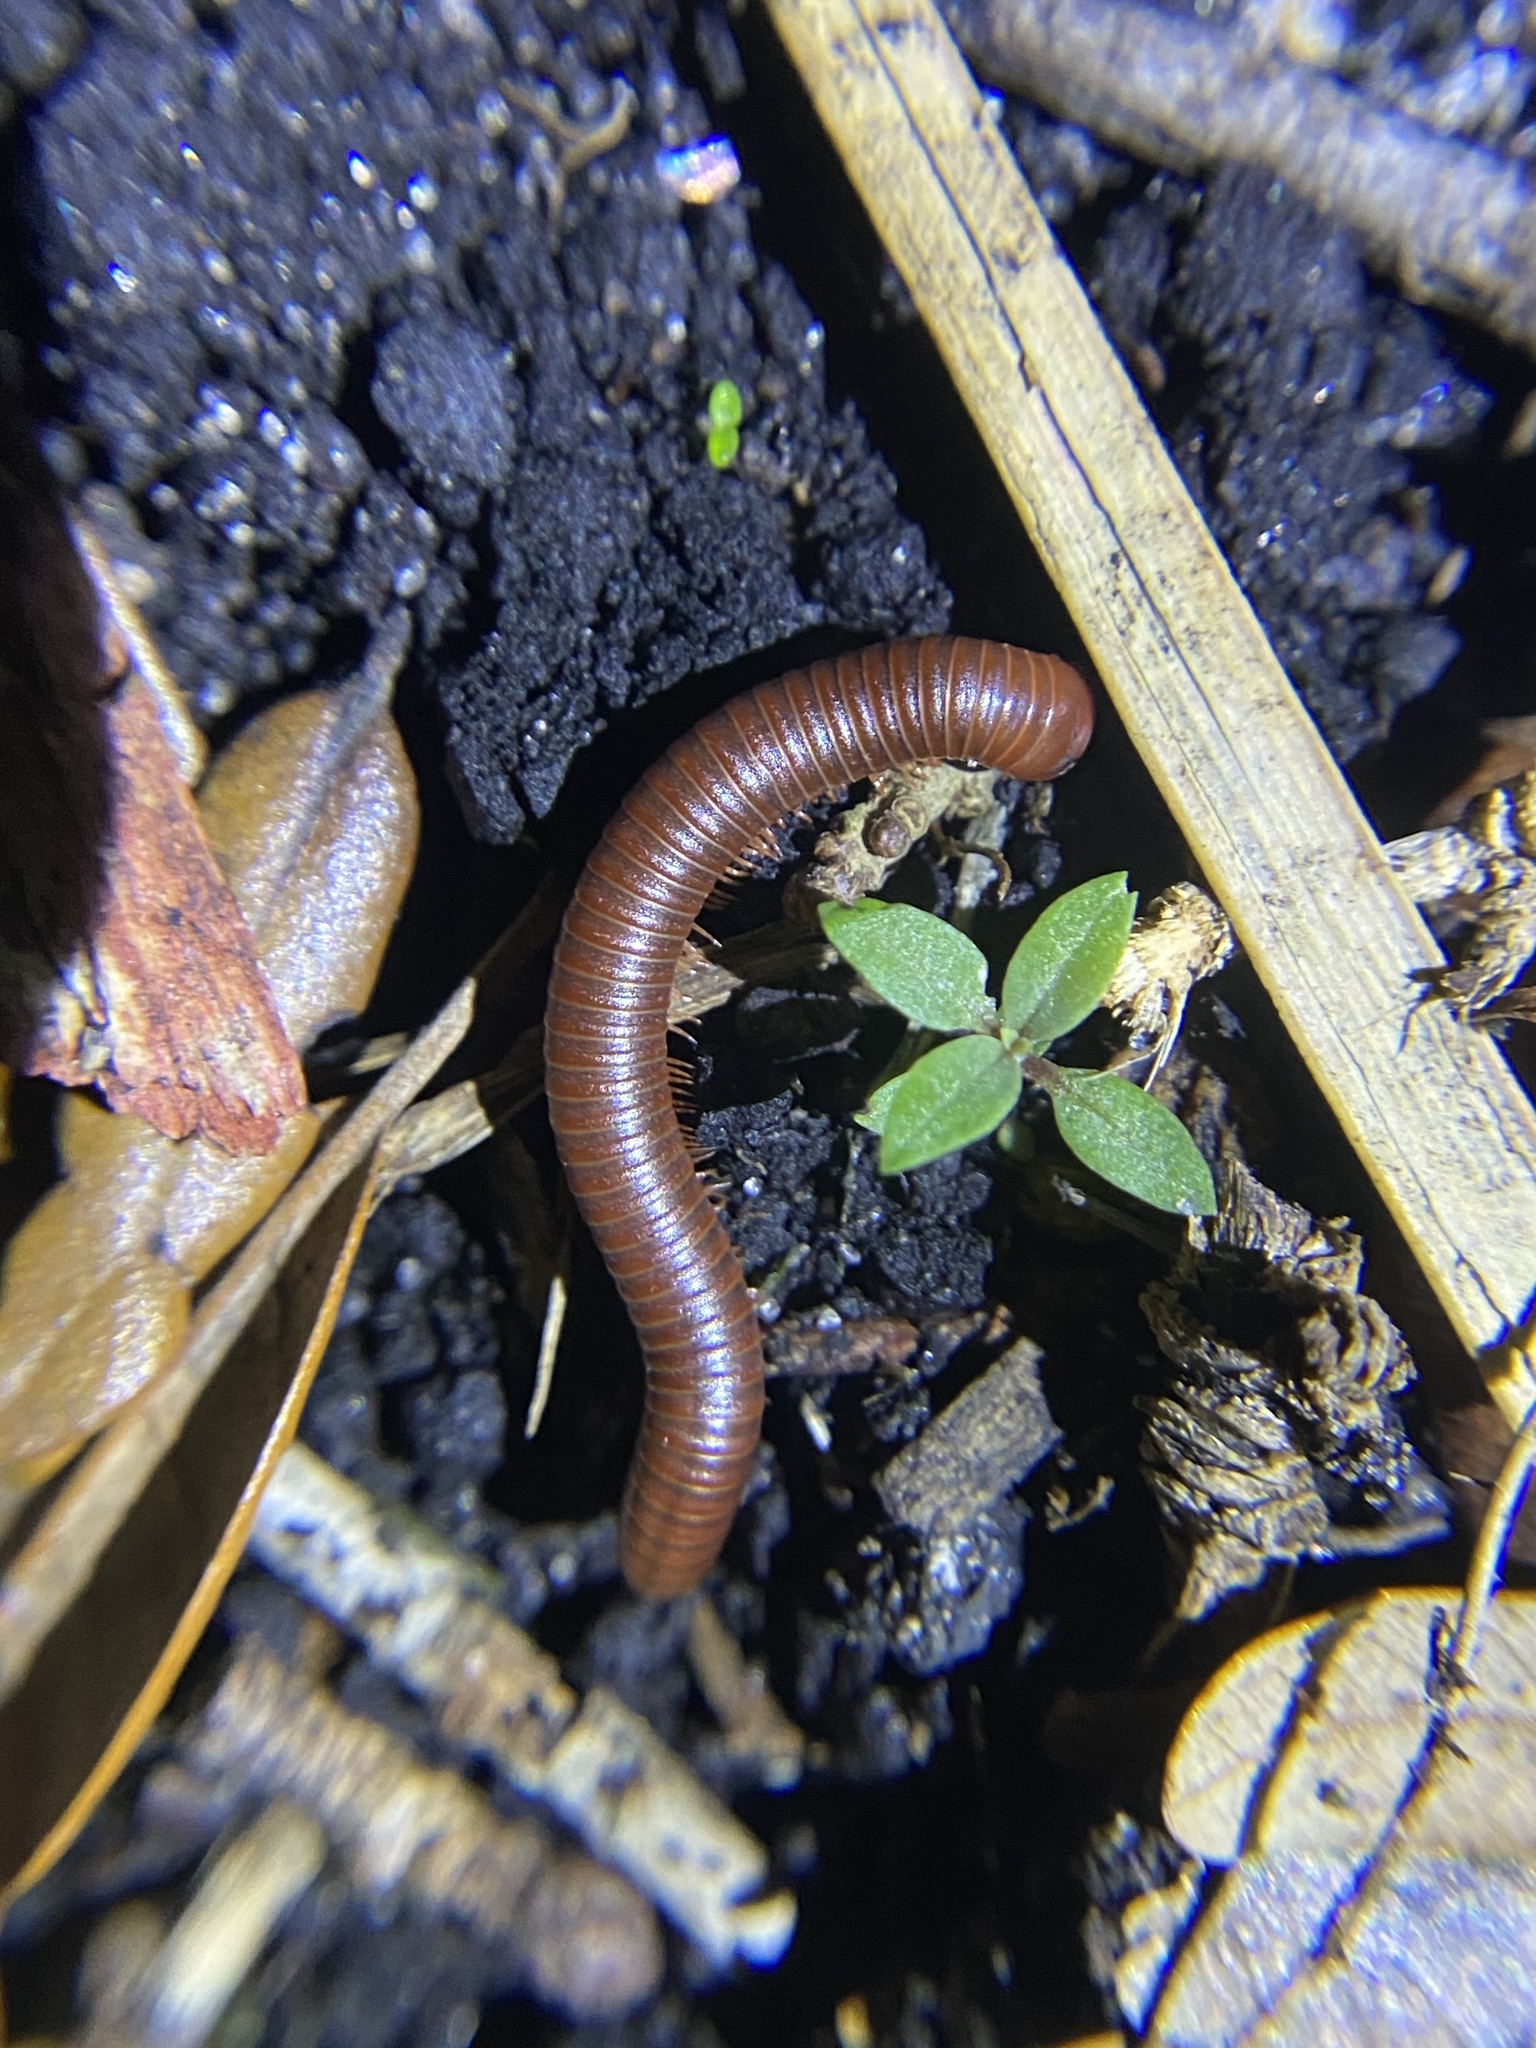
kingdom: Animalia
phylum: Arthropoda
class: Diplopoda
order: Spirobolida
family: Pachybolidae
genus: Trigoniulus
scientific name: Trigoniulus corallinus
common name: Millipede
